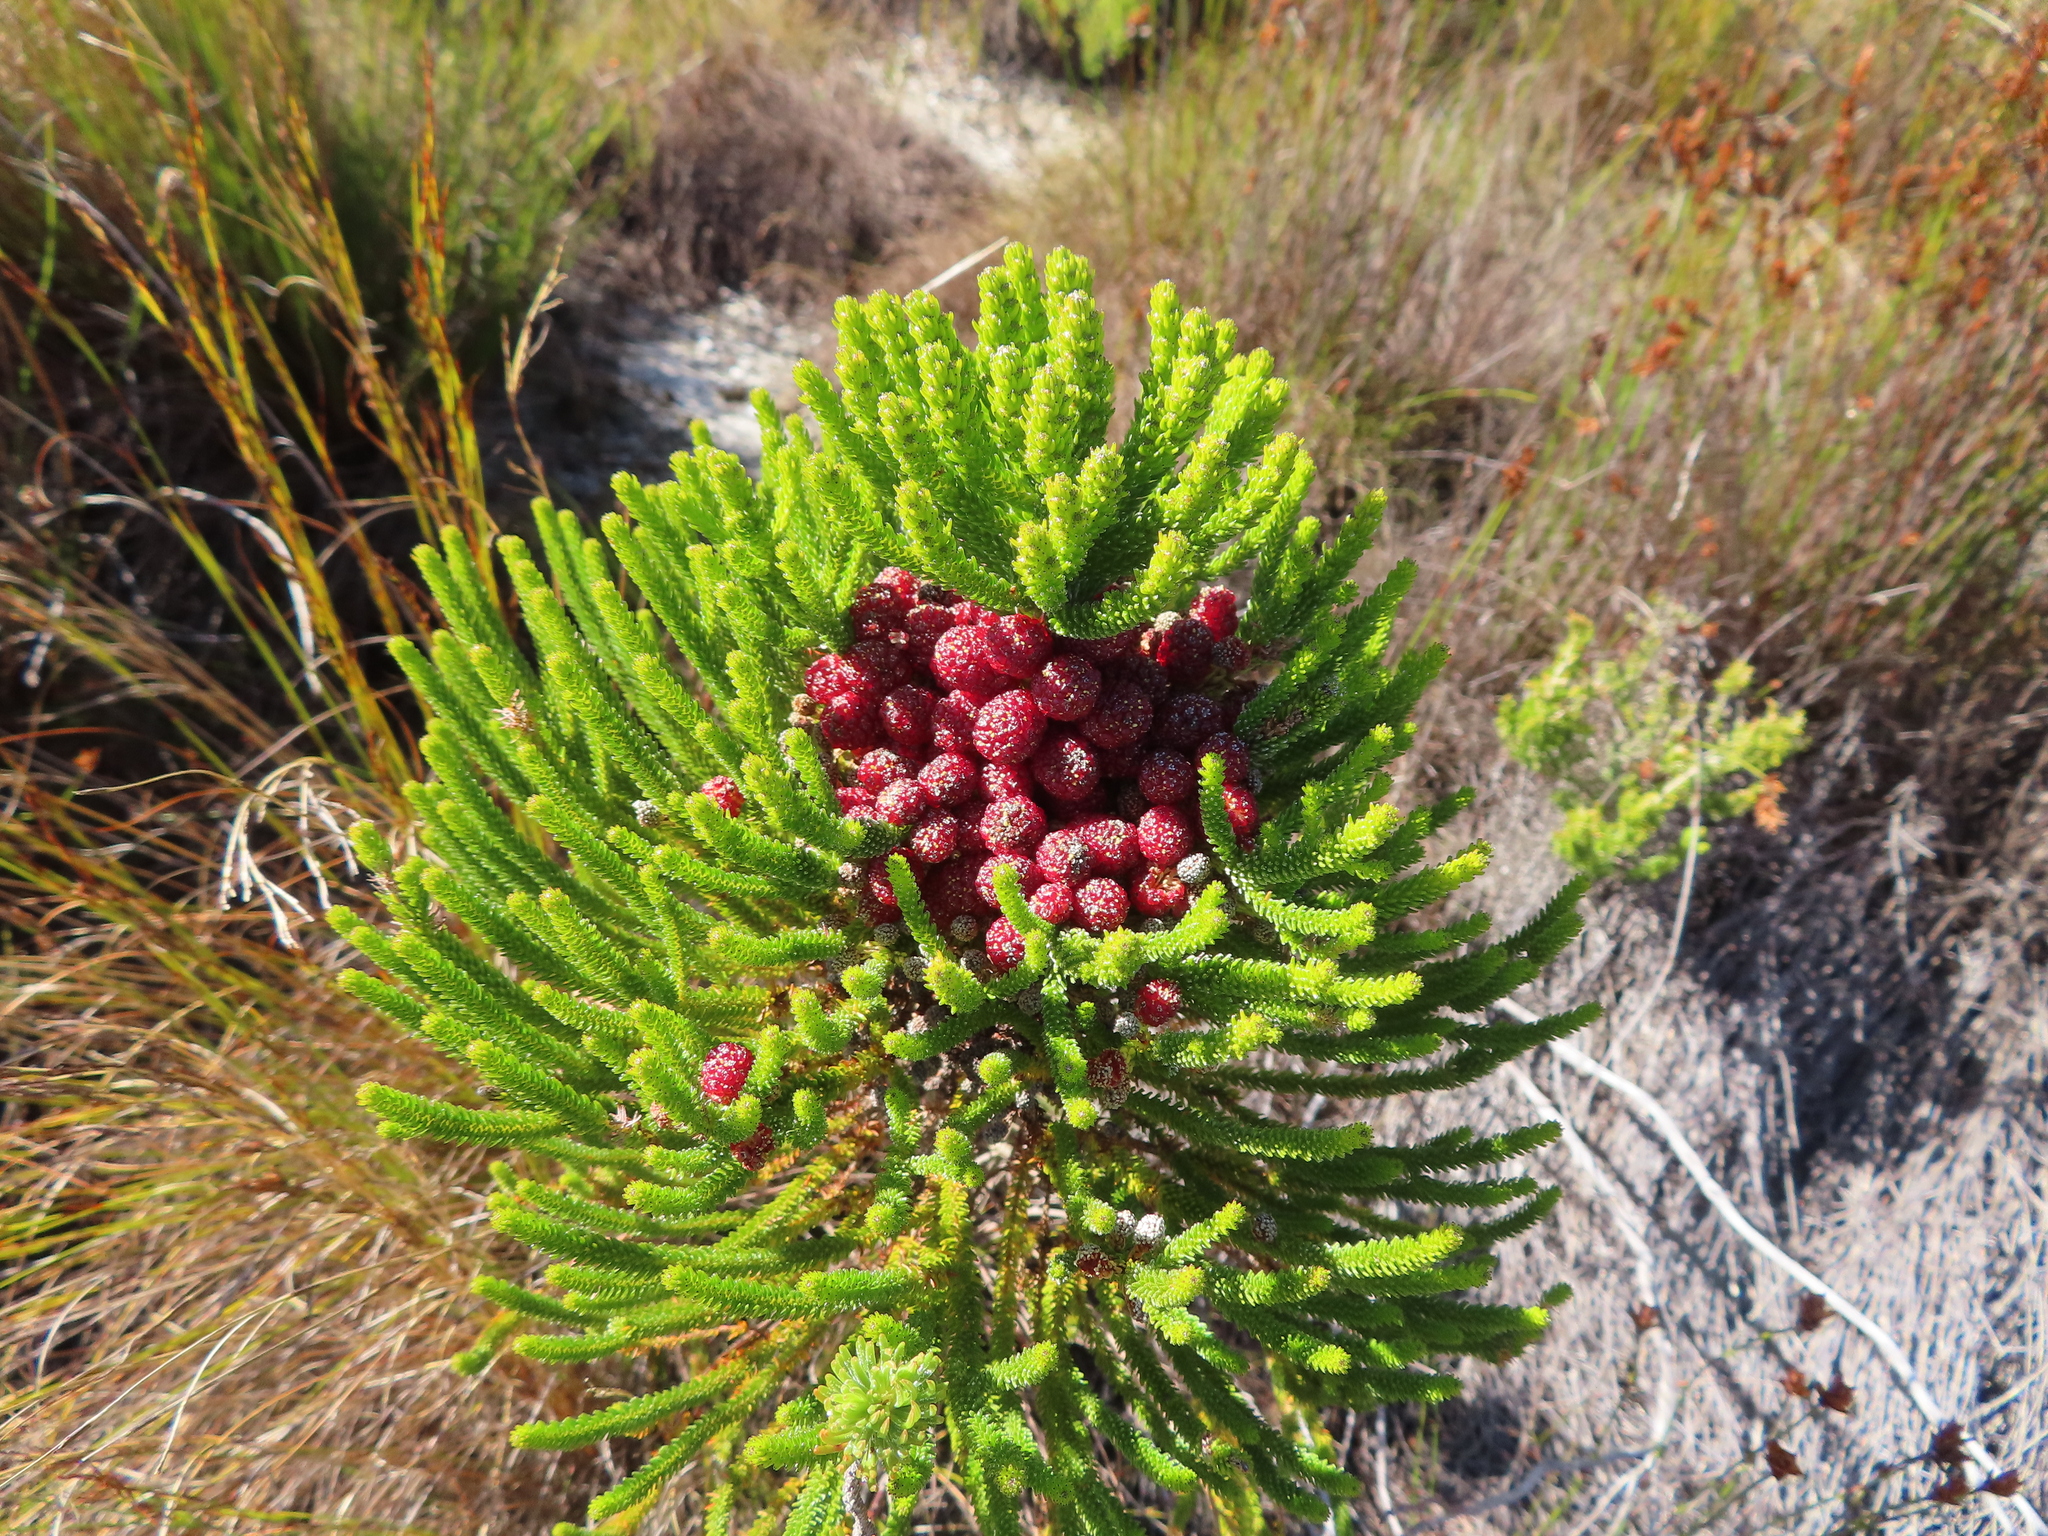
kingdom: Plantae
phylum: Tracheophyta
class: Magnoliopsida
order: Bruniales
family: Bruniaceae
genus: Berzelia
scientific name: Berzelia abrotanoides
